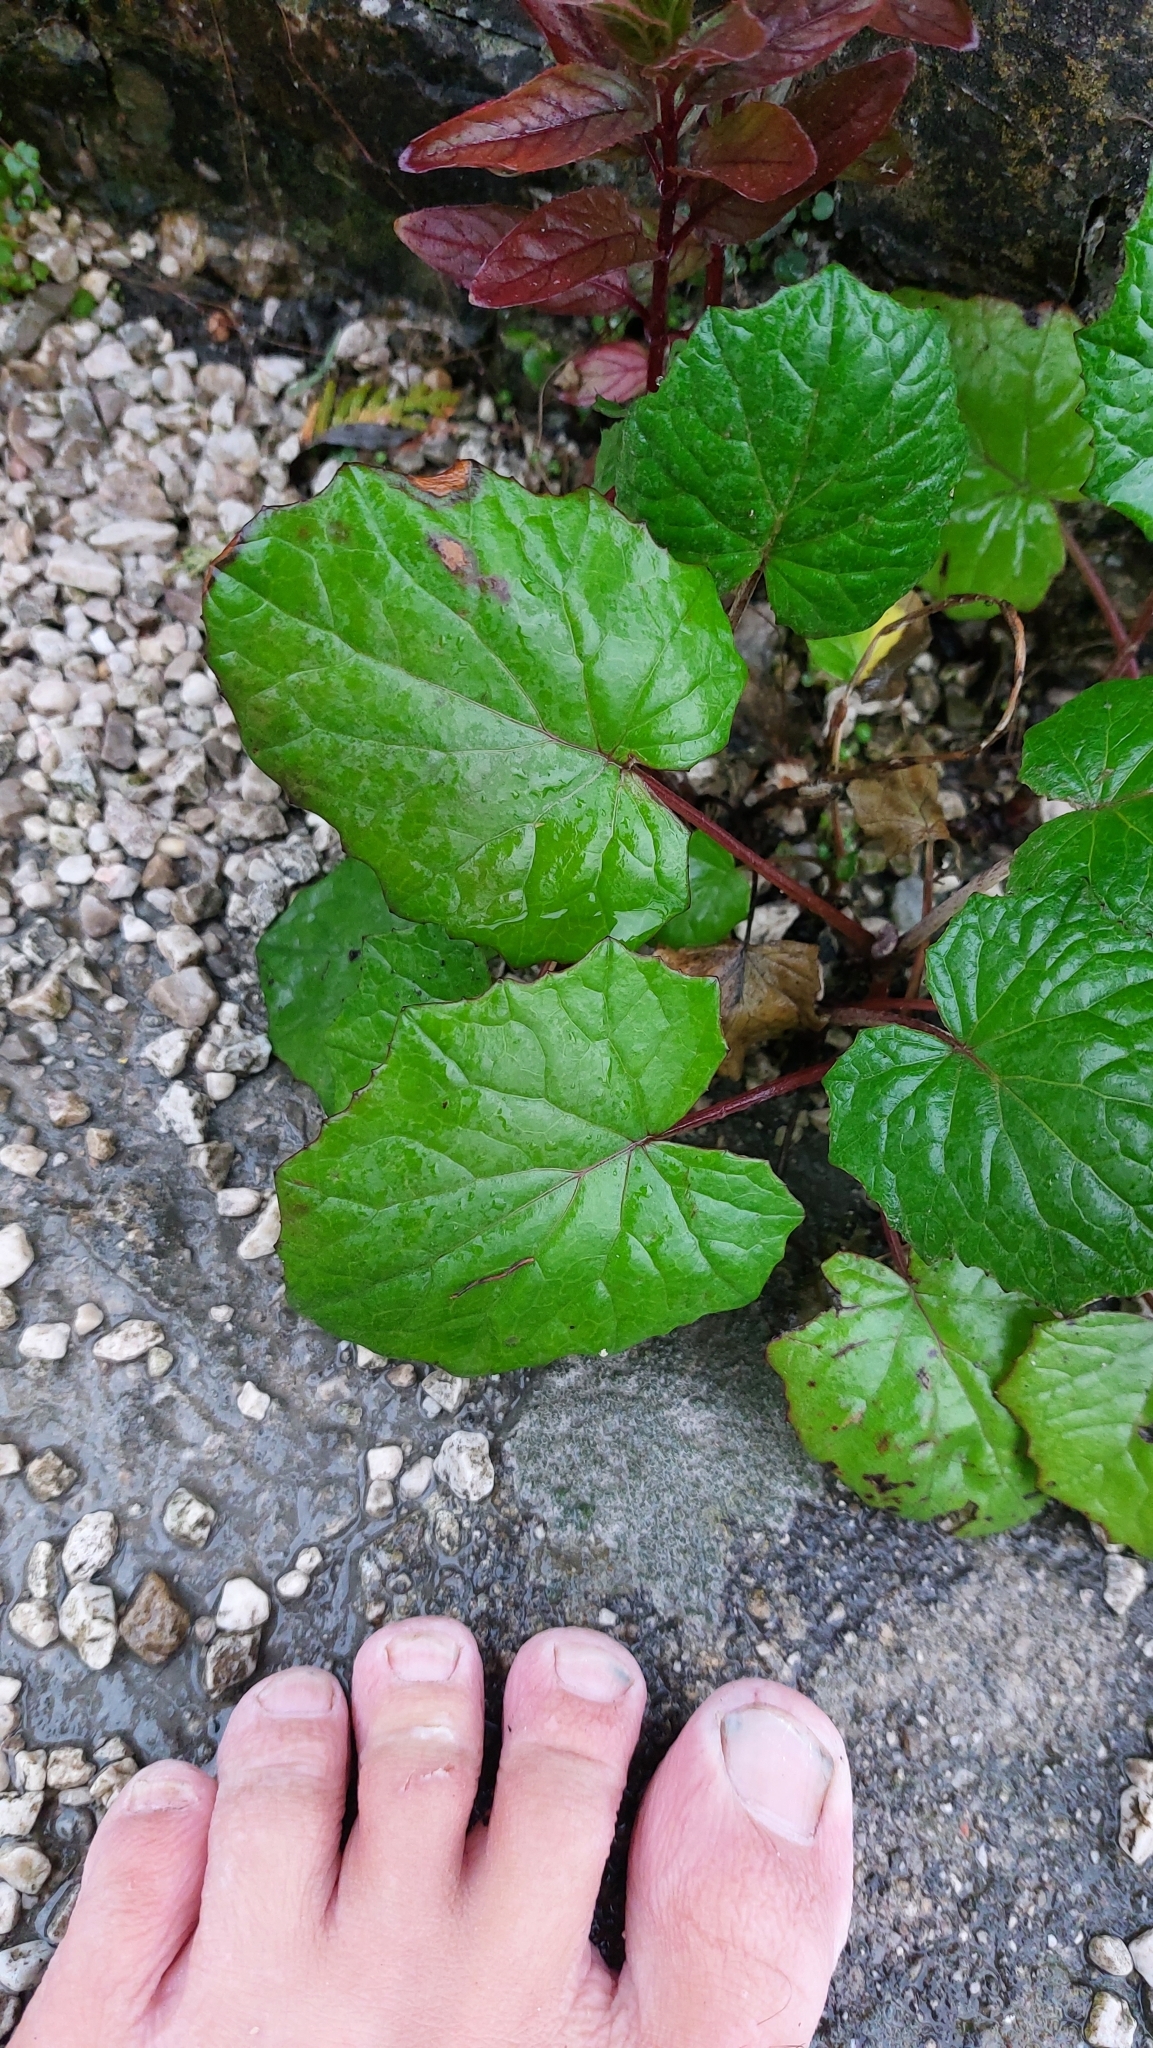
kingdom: Plantae
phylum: Tracheophyta
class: Magnoliopsida
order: Asterales
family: Asteraceae
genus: Tussilago
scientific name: Tussilago farfara
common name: Coltsfoot
